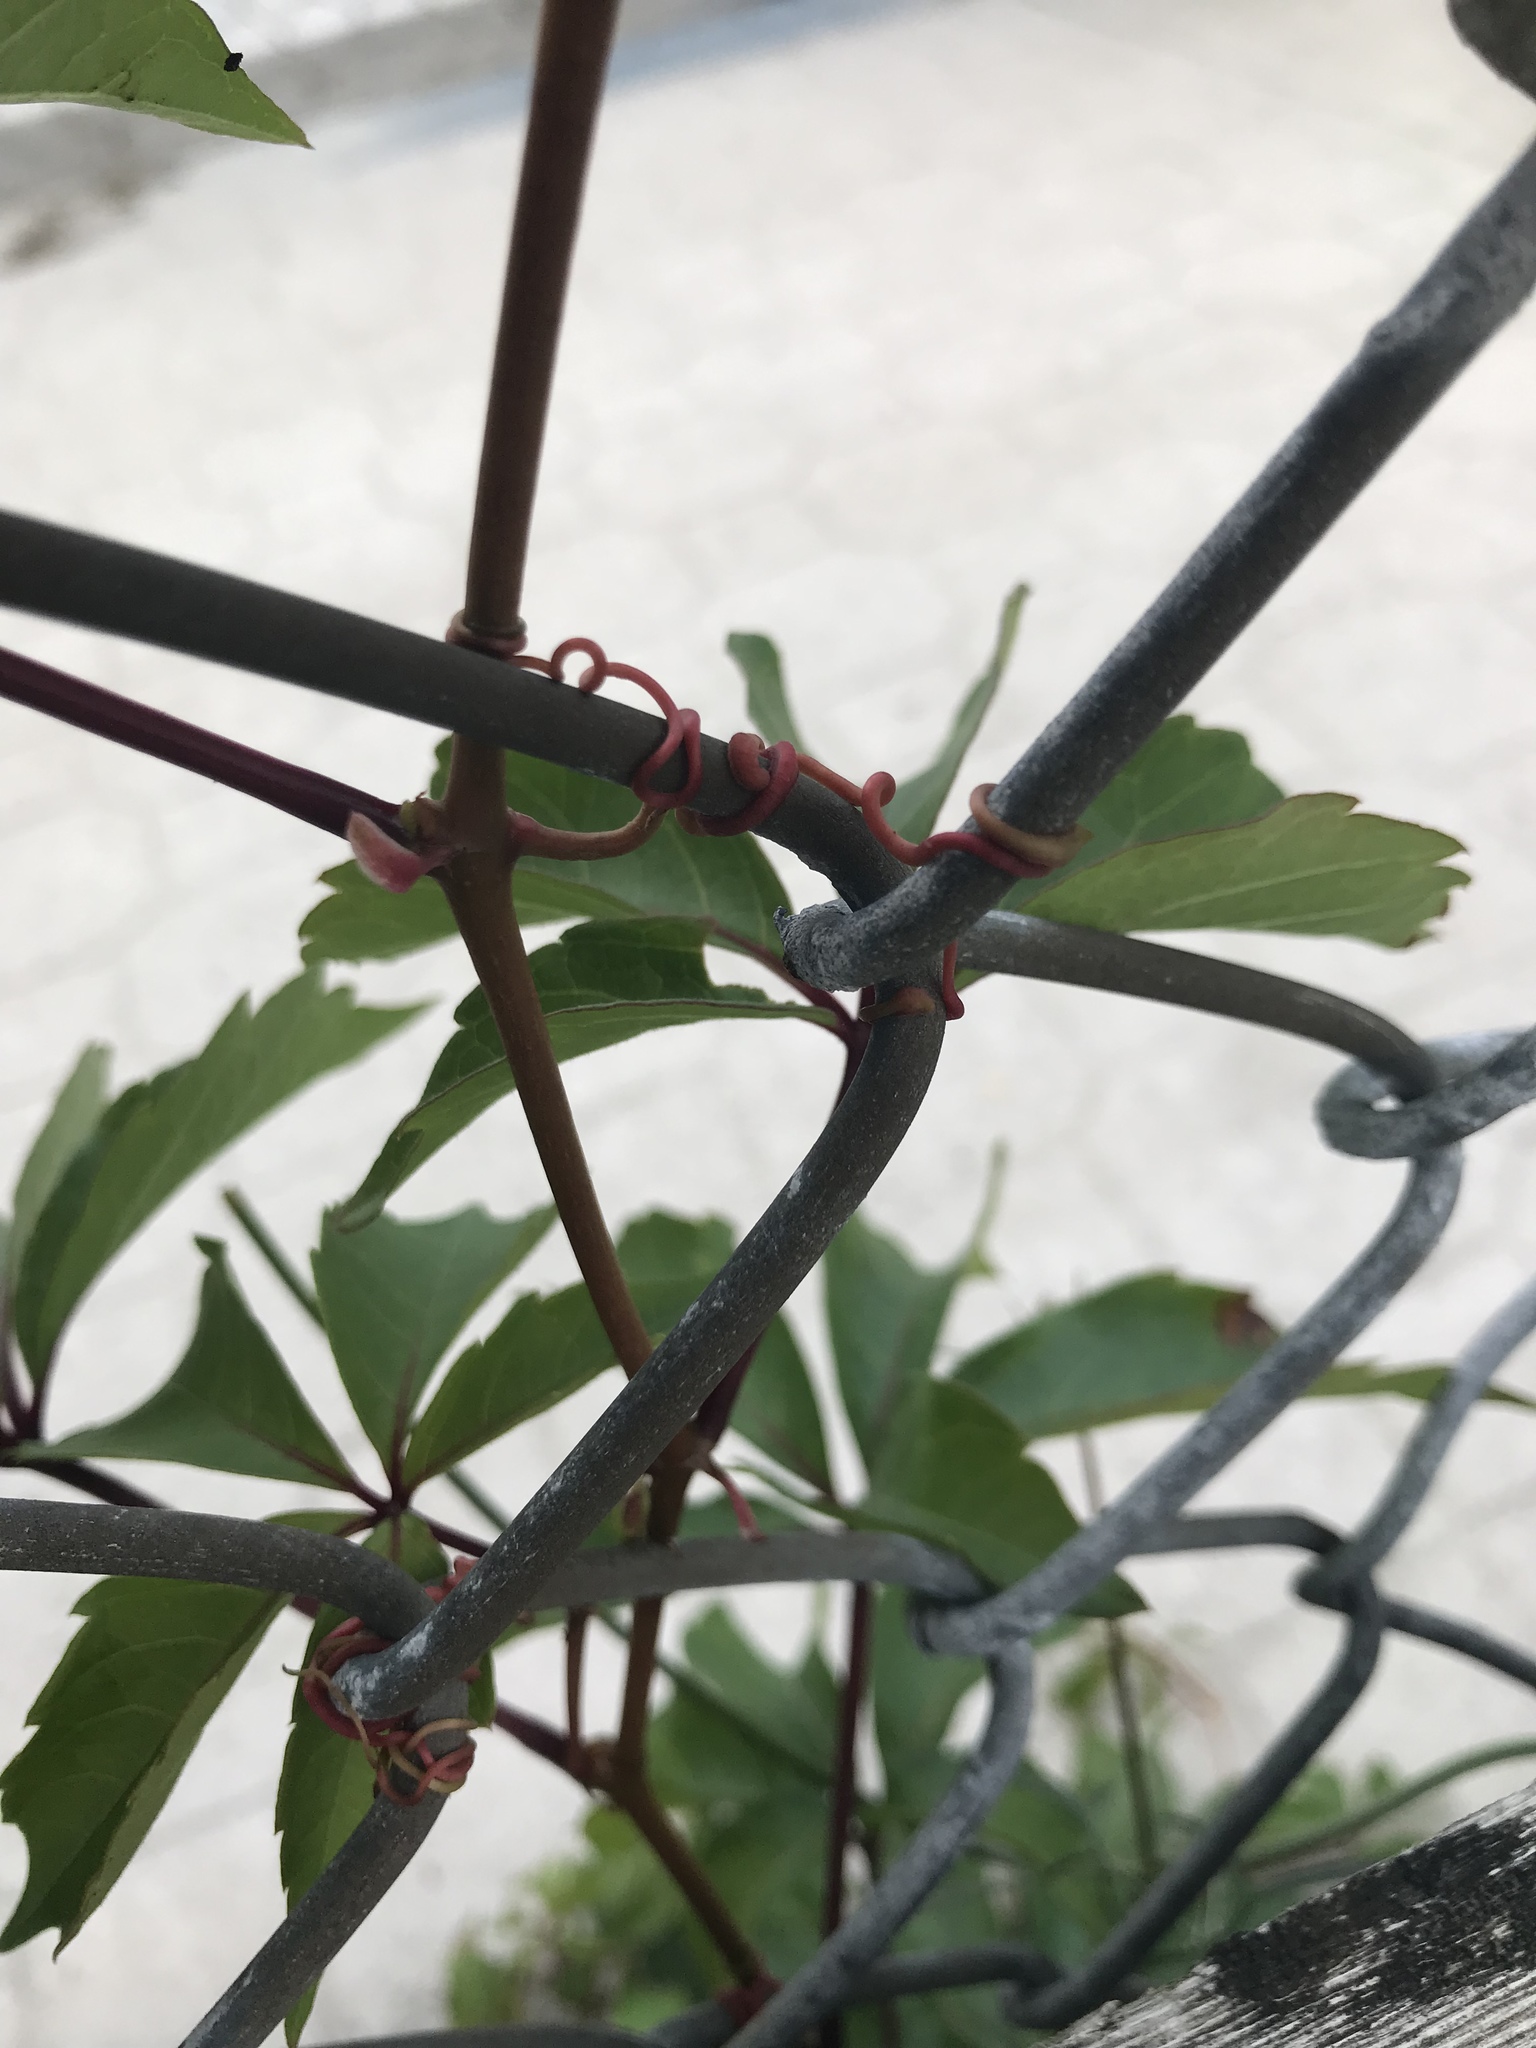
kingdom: Plantae
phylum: Tracheophyta
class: Magnoliopsida
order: Vitales
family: Vitaceae
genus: Parthenocissus
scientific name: Parthenocissus inserta
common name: False virginia-creeper
